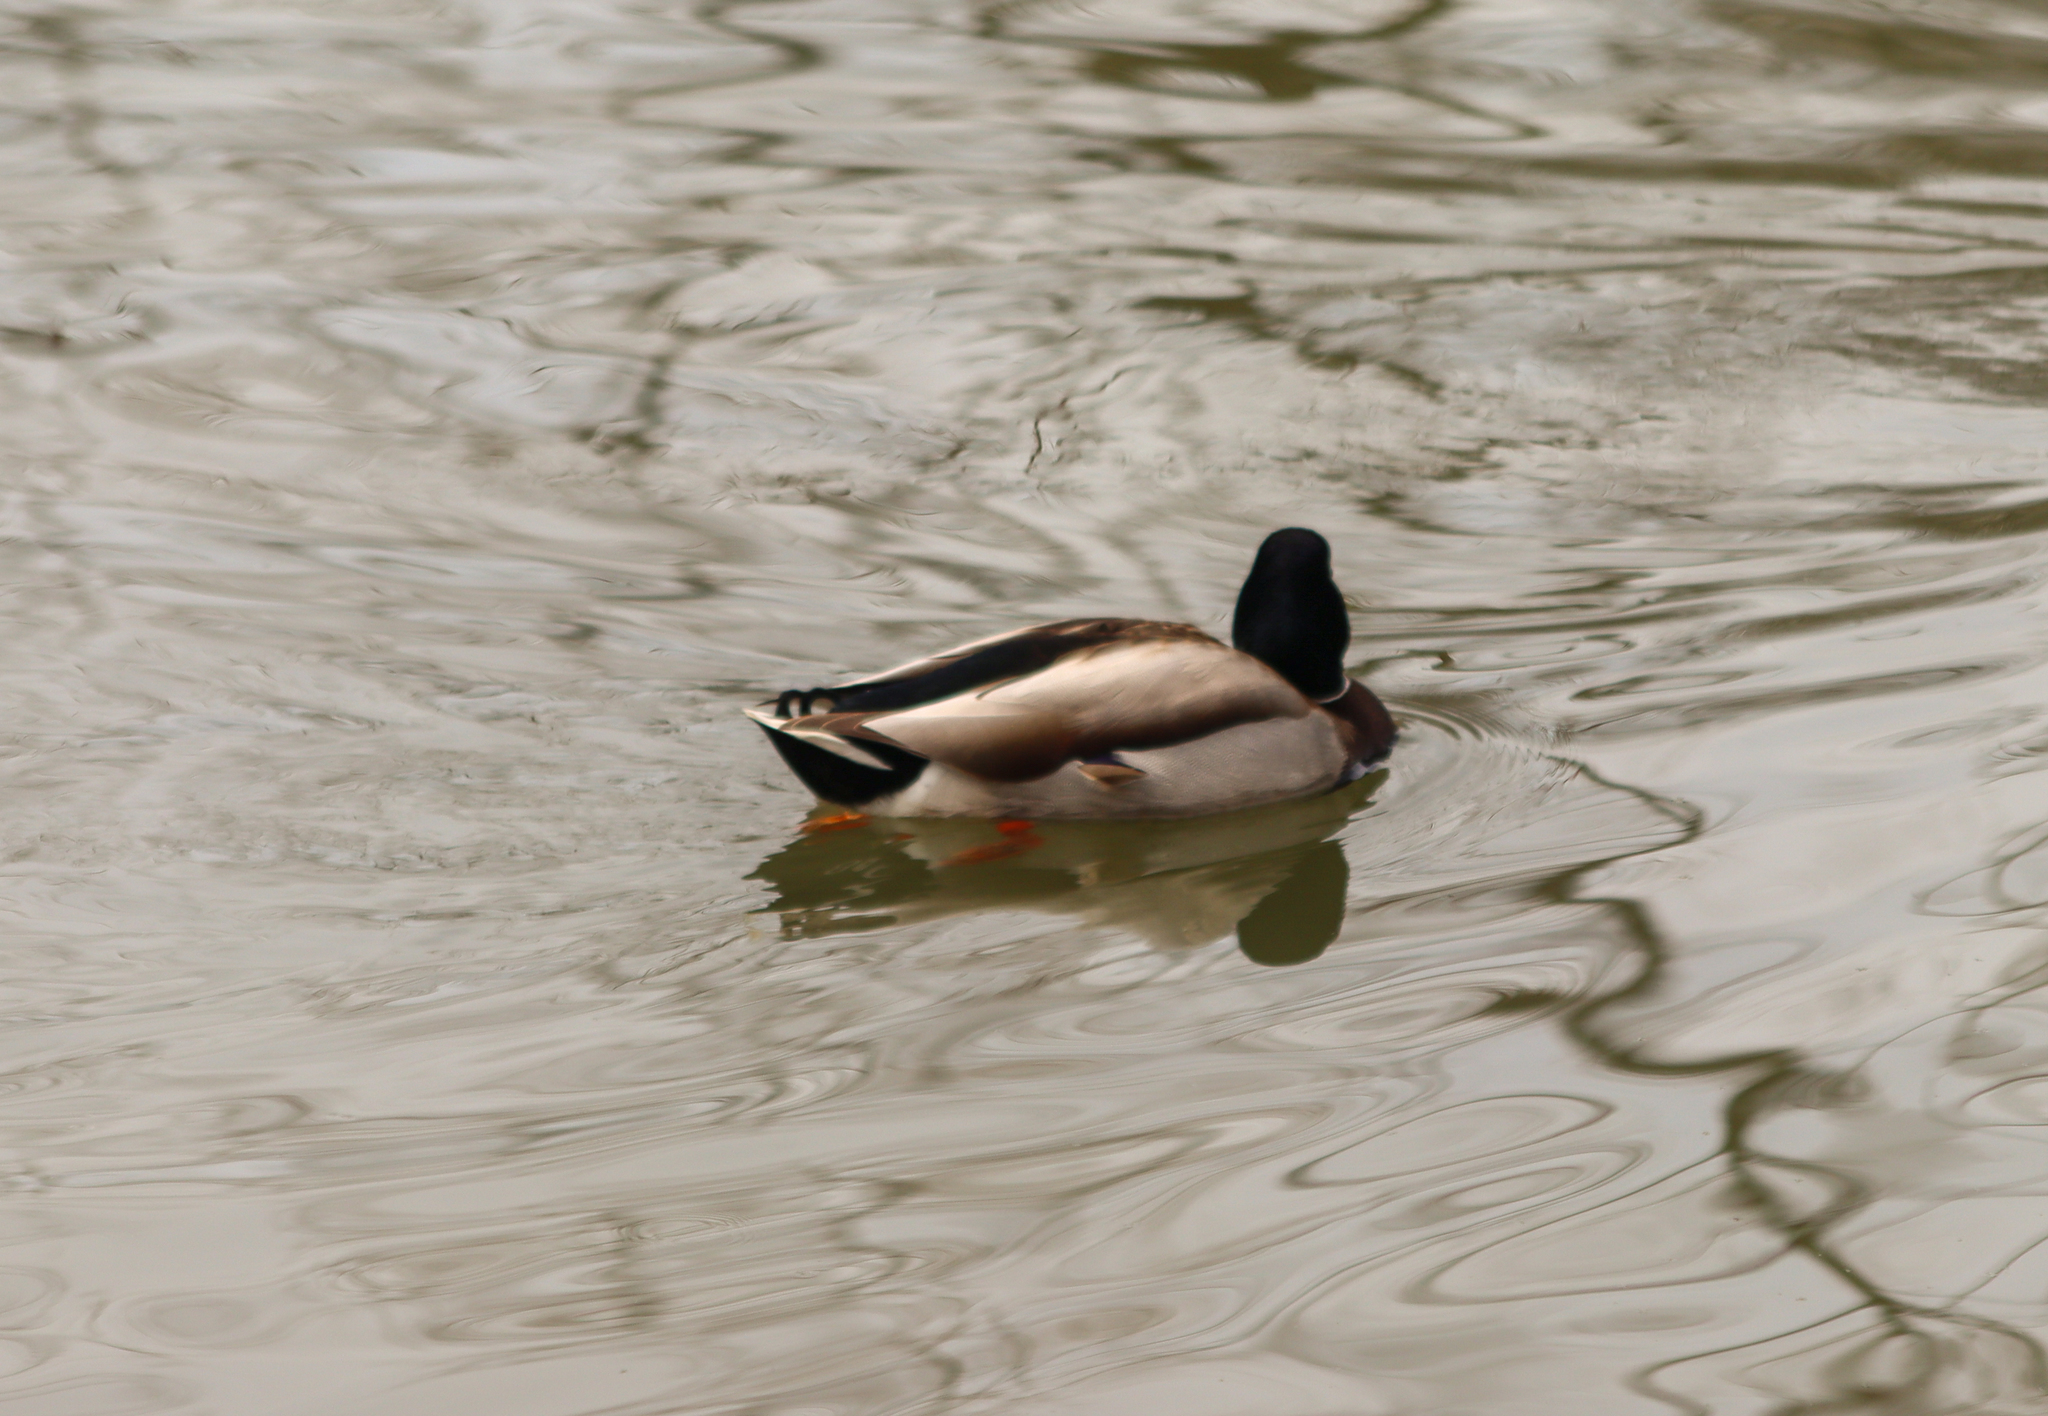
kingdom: Animalia
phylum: Chordata
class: Aves
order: Anseriformes
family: Anatidae
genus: Anas
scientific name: Anas platyrhynchos
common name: Mallard
